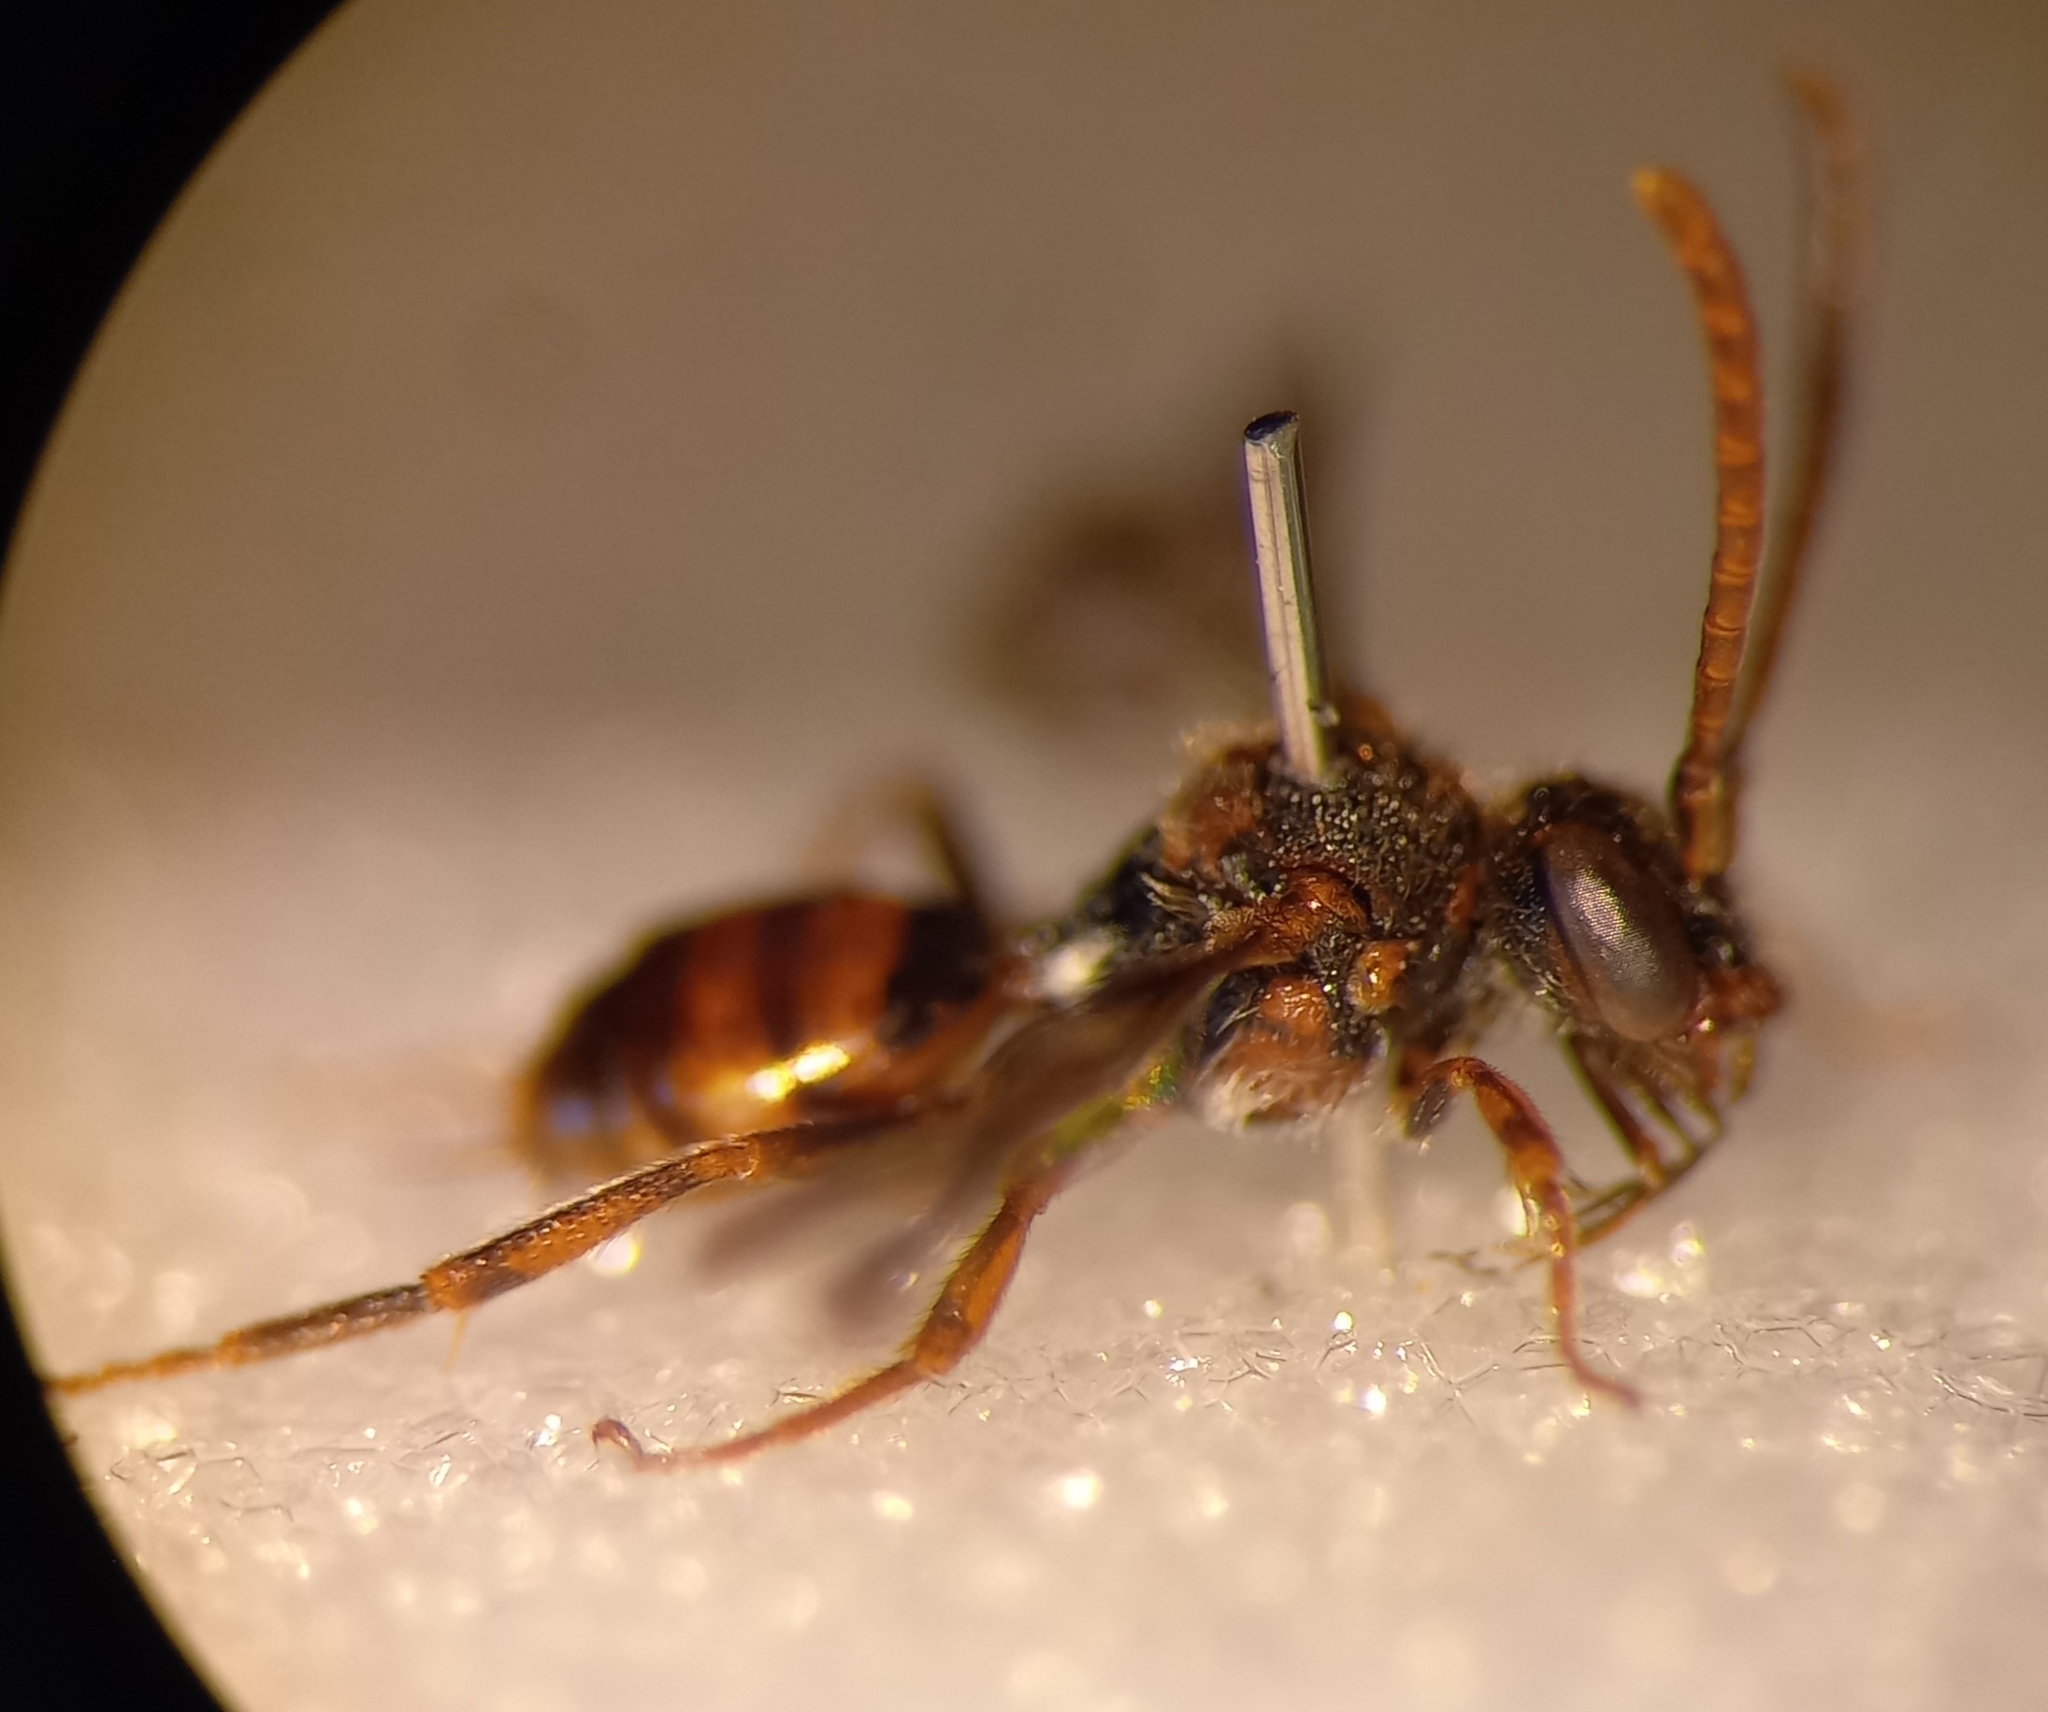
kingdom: Animalia
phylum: Arthropoda
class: Insecta
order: Hymenoptera
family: Apidae
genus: Nomada
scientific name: Nomada flavoguttata
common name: Little nomad bee
